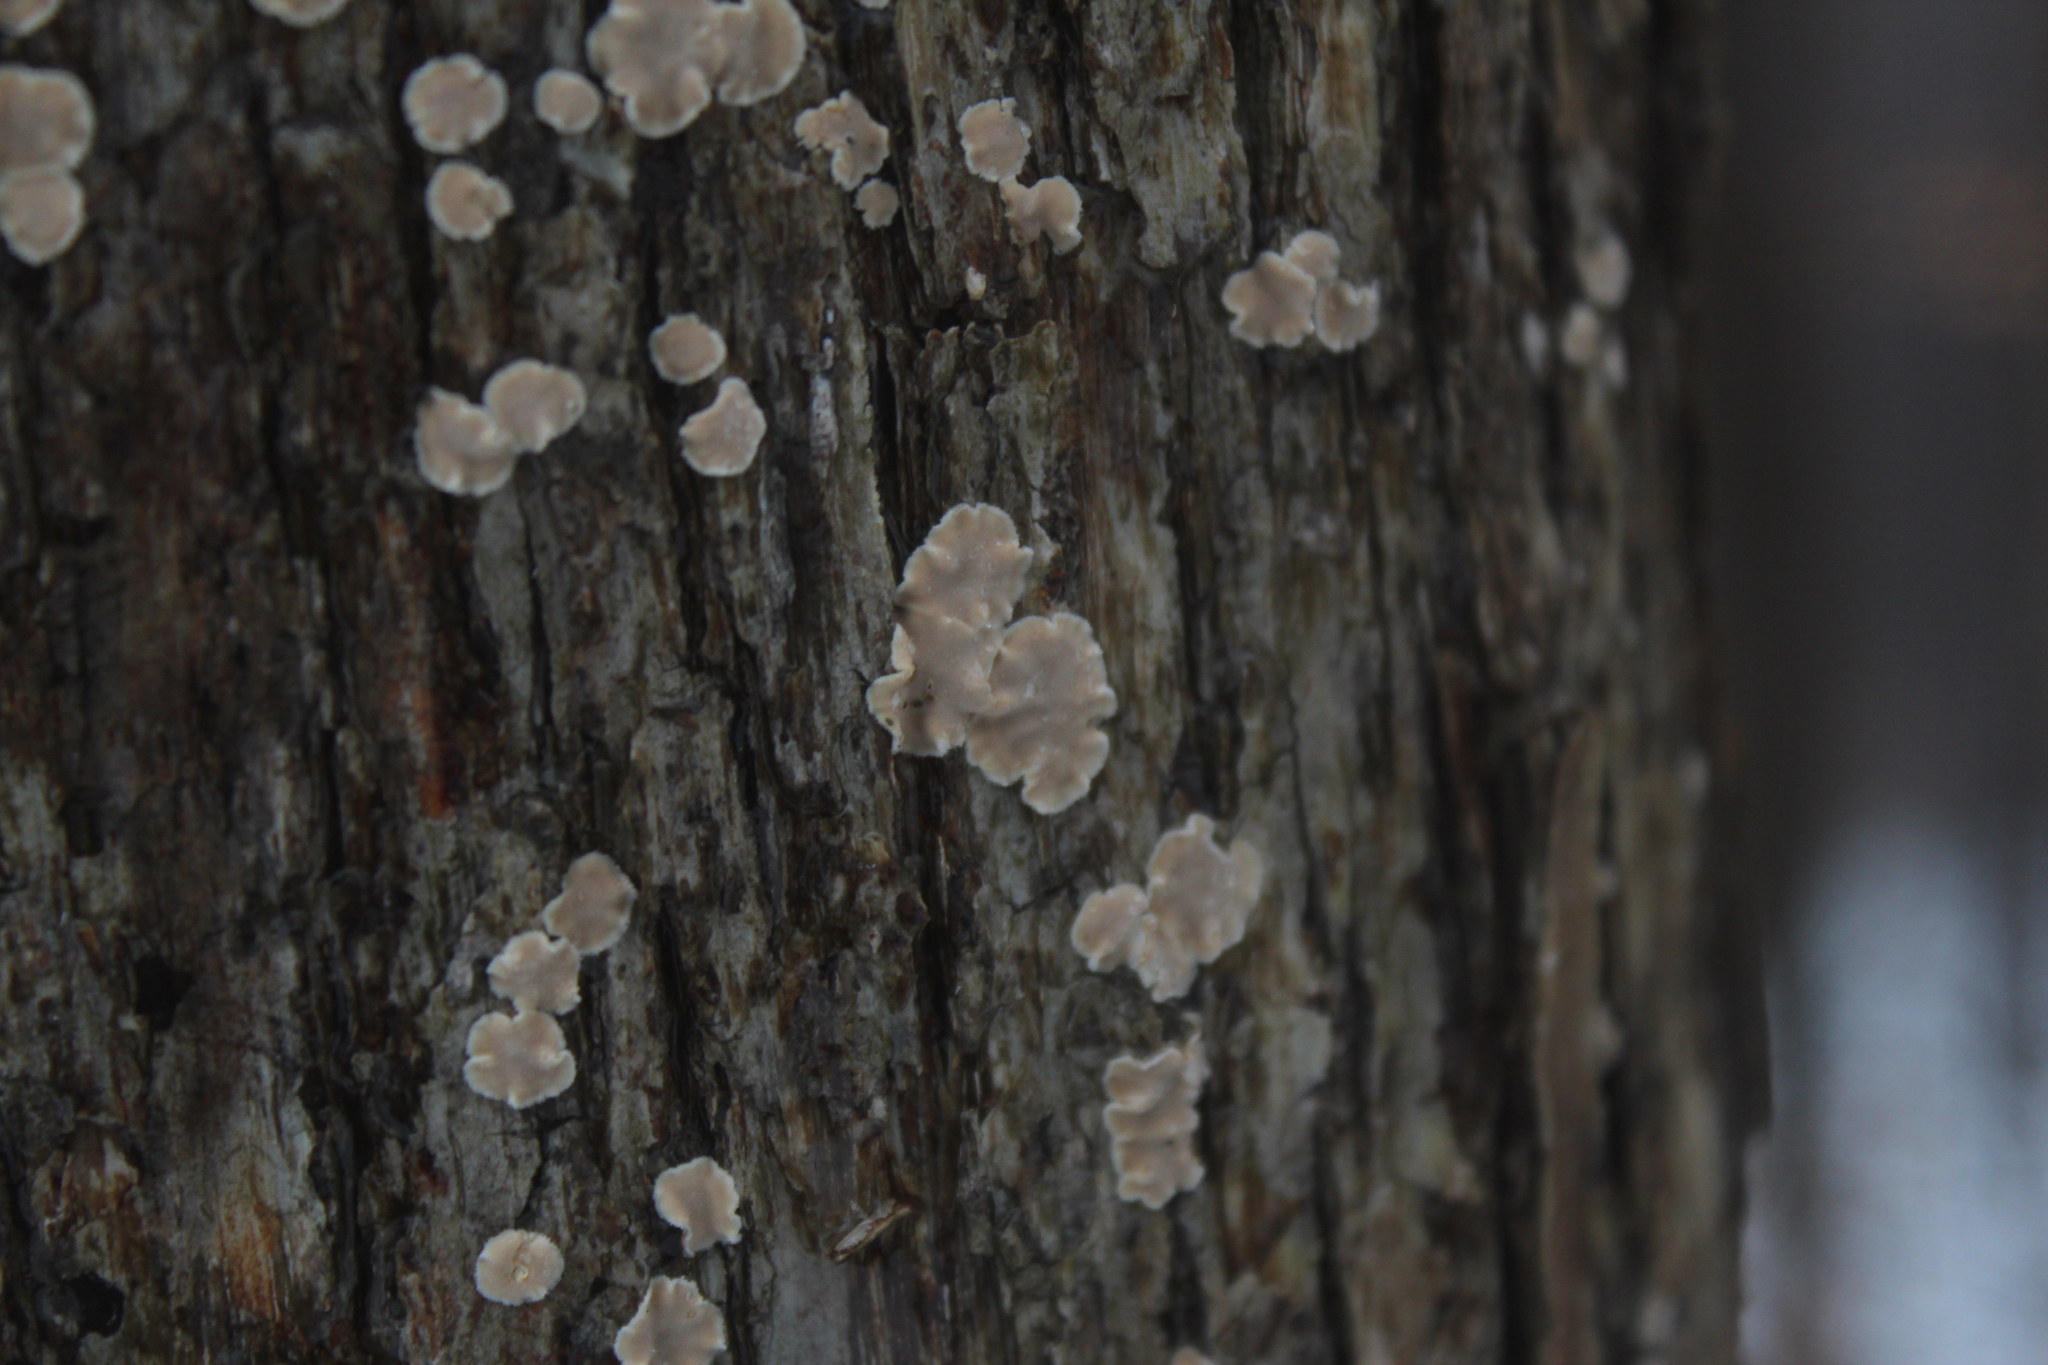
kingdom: Fungi
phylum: Basidiomycota
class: Agaricomycetes
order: Russulales
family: Stereaceae
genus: Acanthophysium
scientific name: Acanthophysium oakesii
